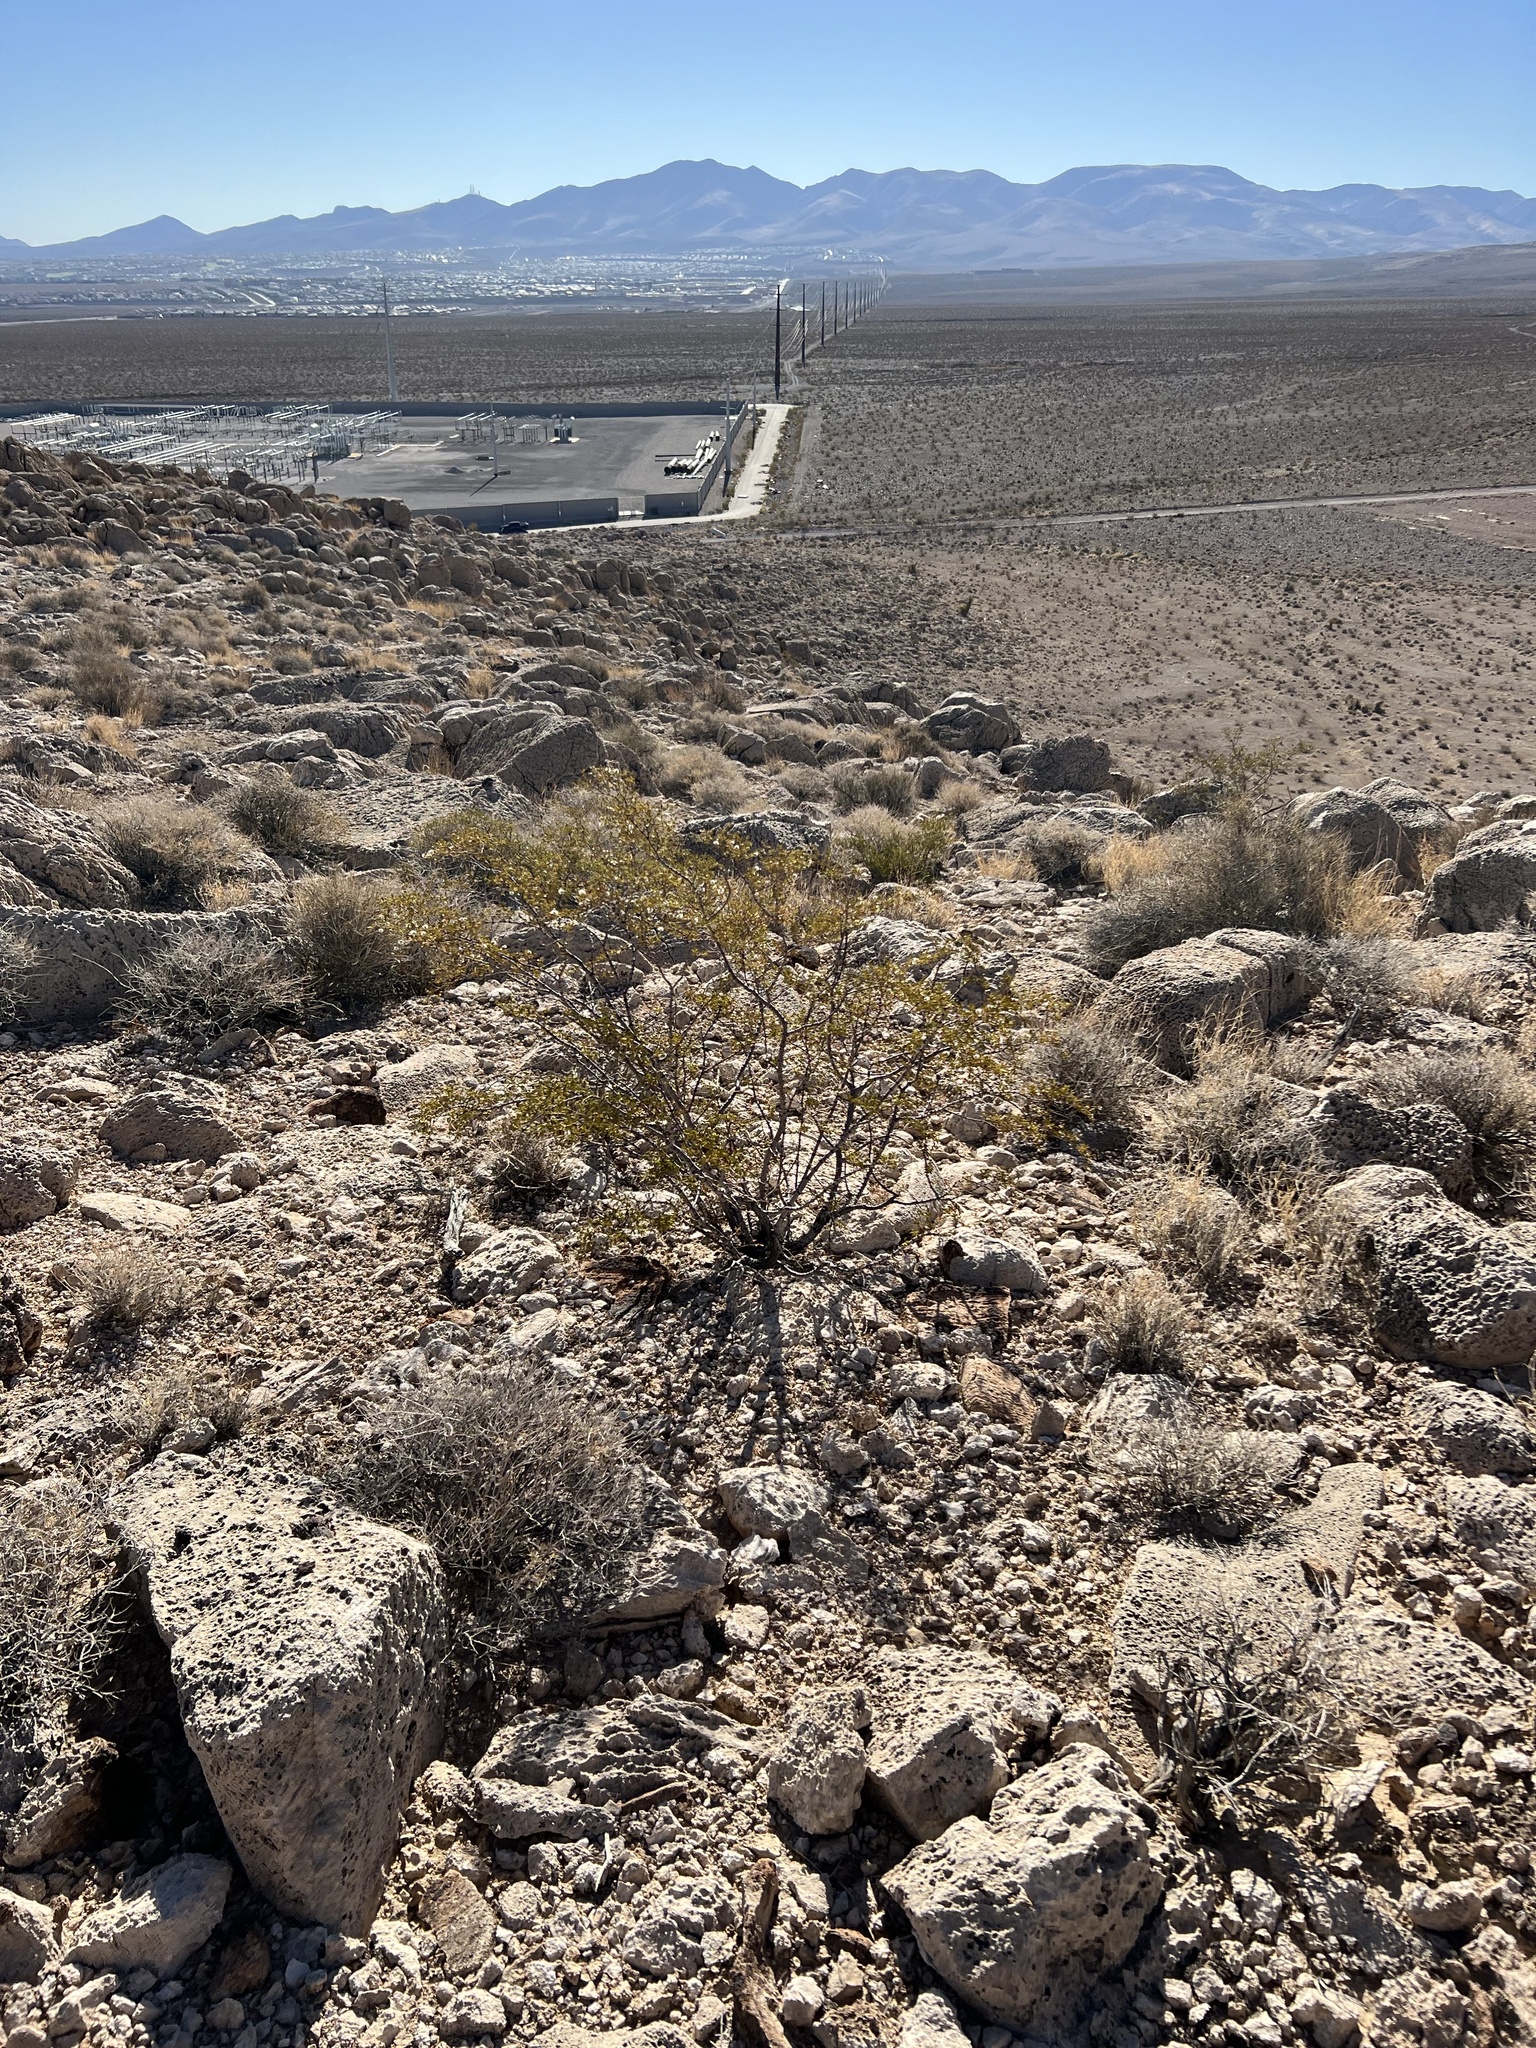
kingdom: Plantae
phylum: Tracheophyta
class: Magnoliopsida
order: Zygophyllales
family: Zygophyllaceae
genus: Larrea
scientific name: Larrea tridentata
